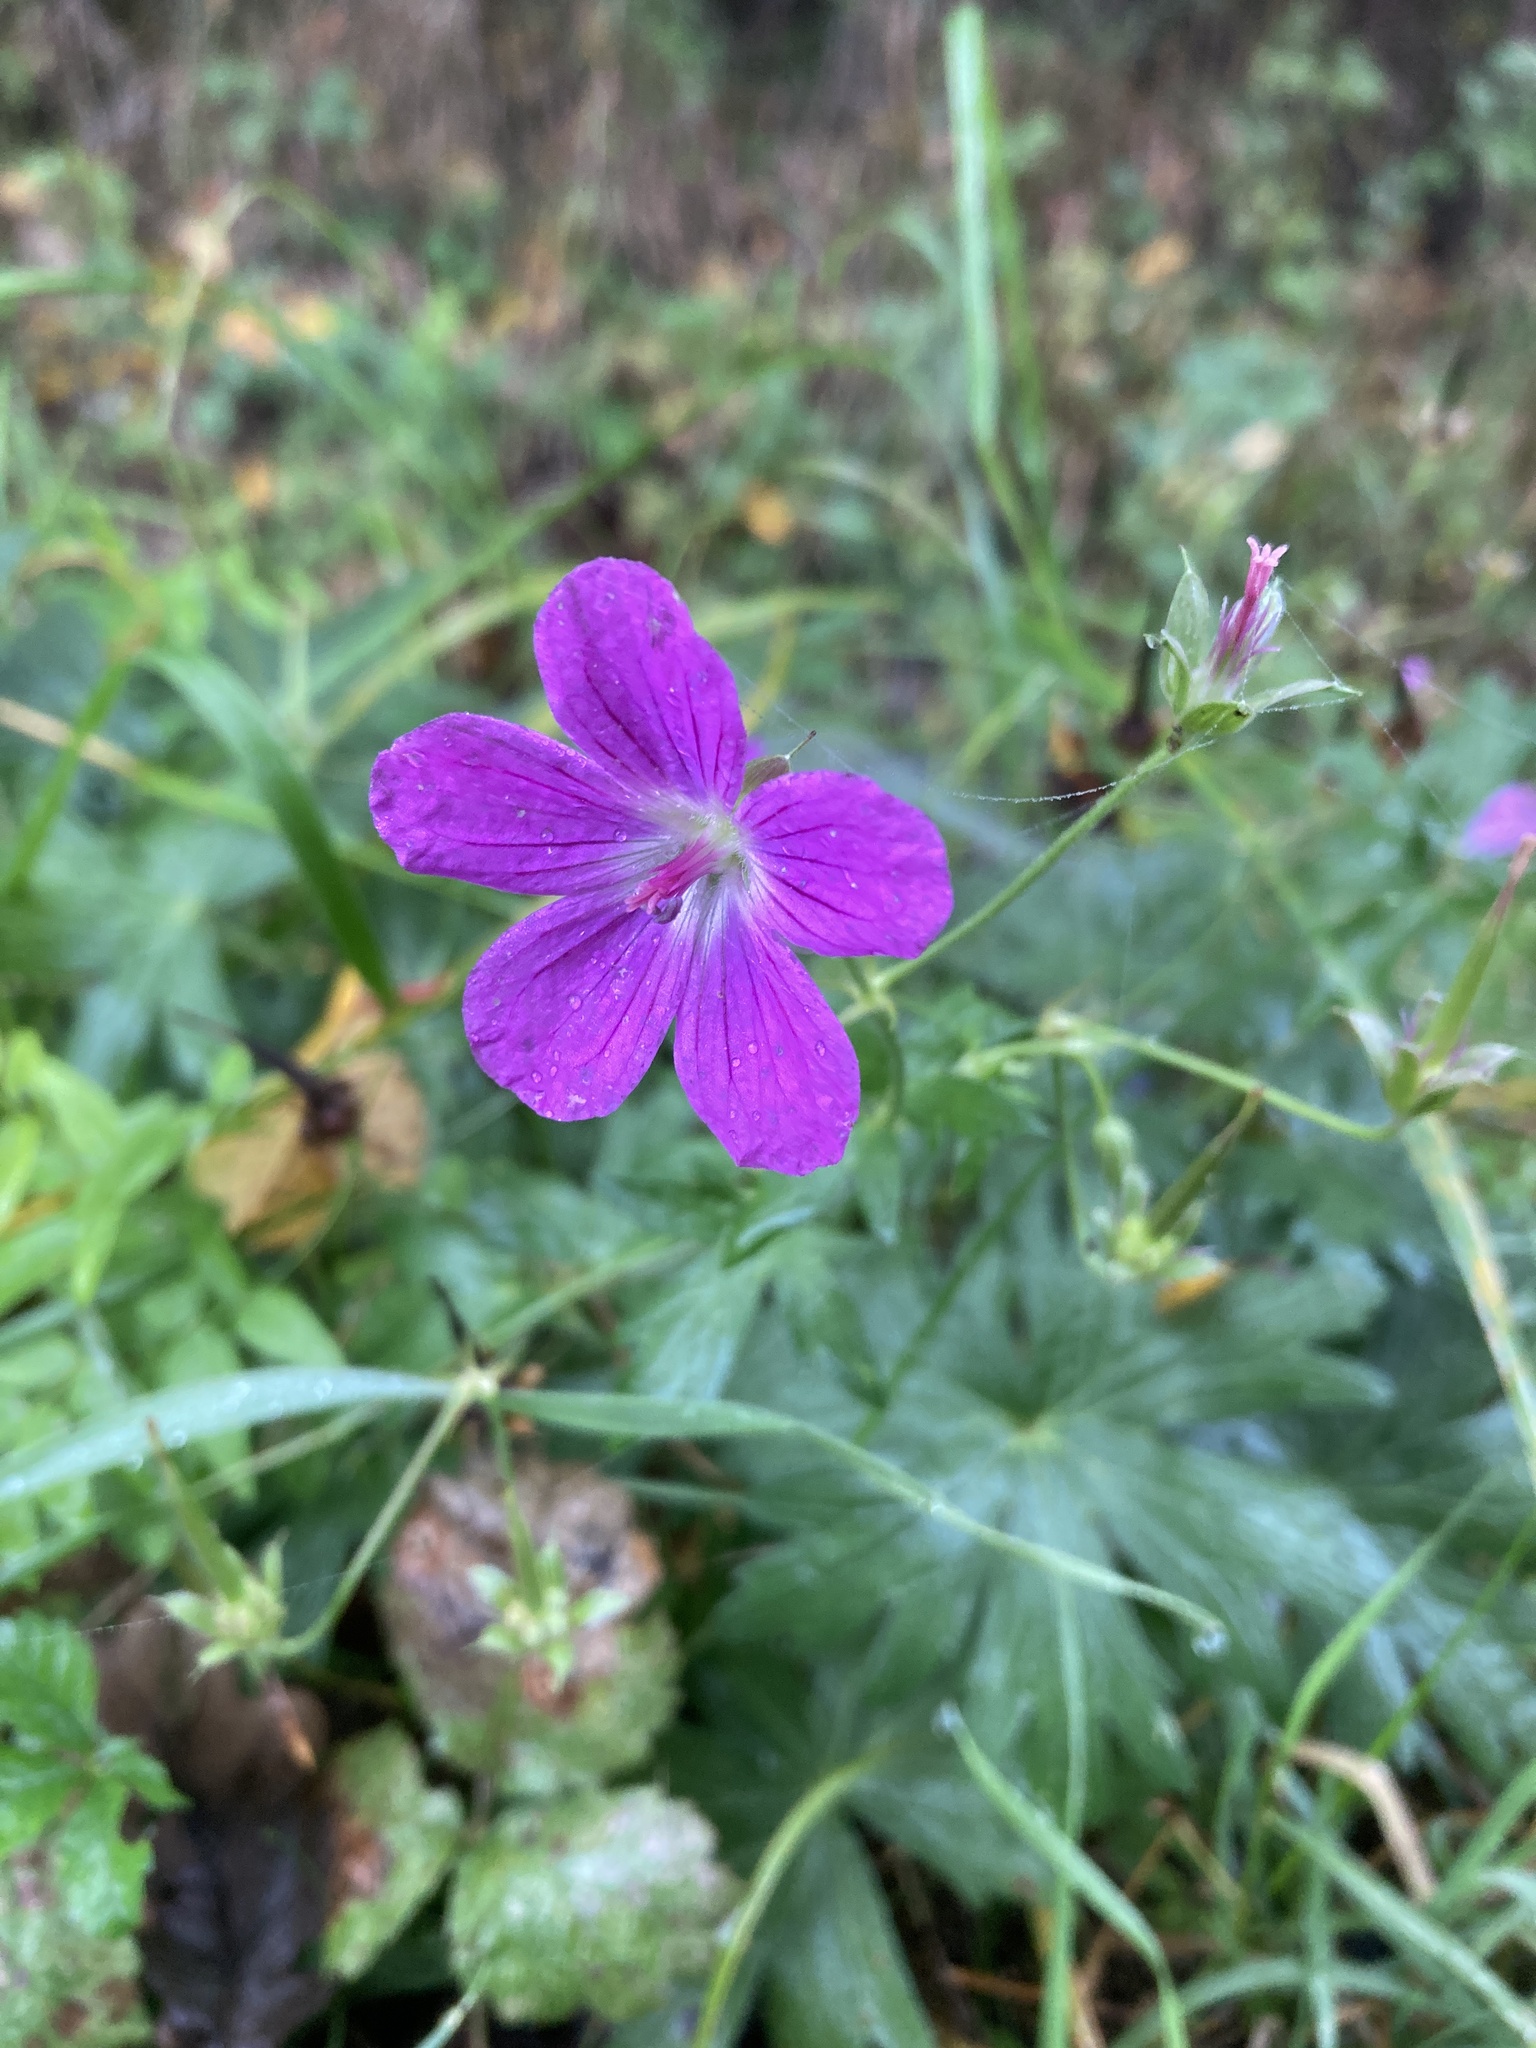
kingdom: Plantae
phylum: Tracheophyta
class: Magnoliopsida
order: Geraniales
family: Geraniaceae
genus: Geranium
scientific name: Geranium palustre
